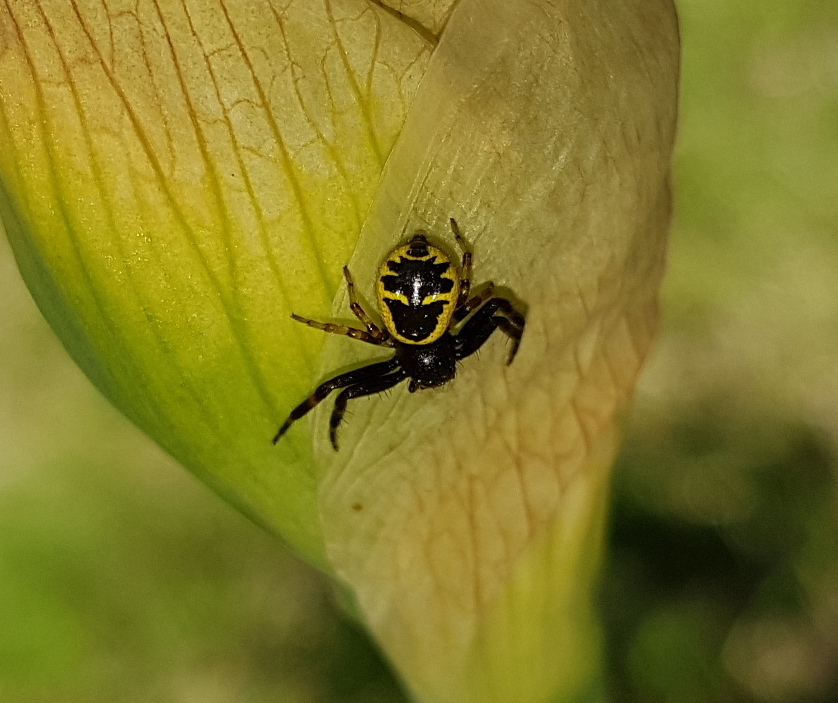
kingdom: Animalia
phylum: Arthropoda
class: Arachnida
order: Araneae
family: Thomisidae
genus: Synema
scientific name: Synema globosum
